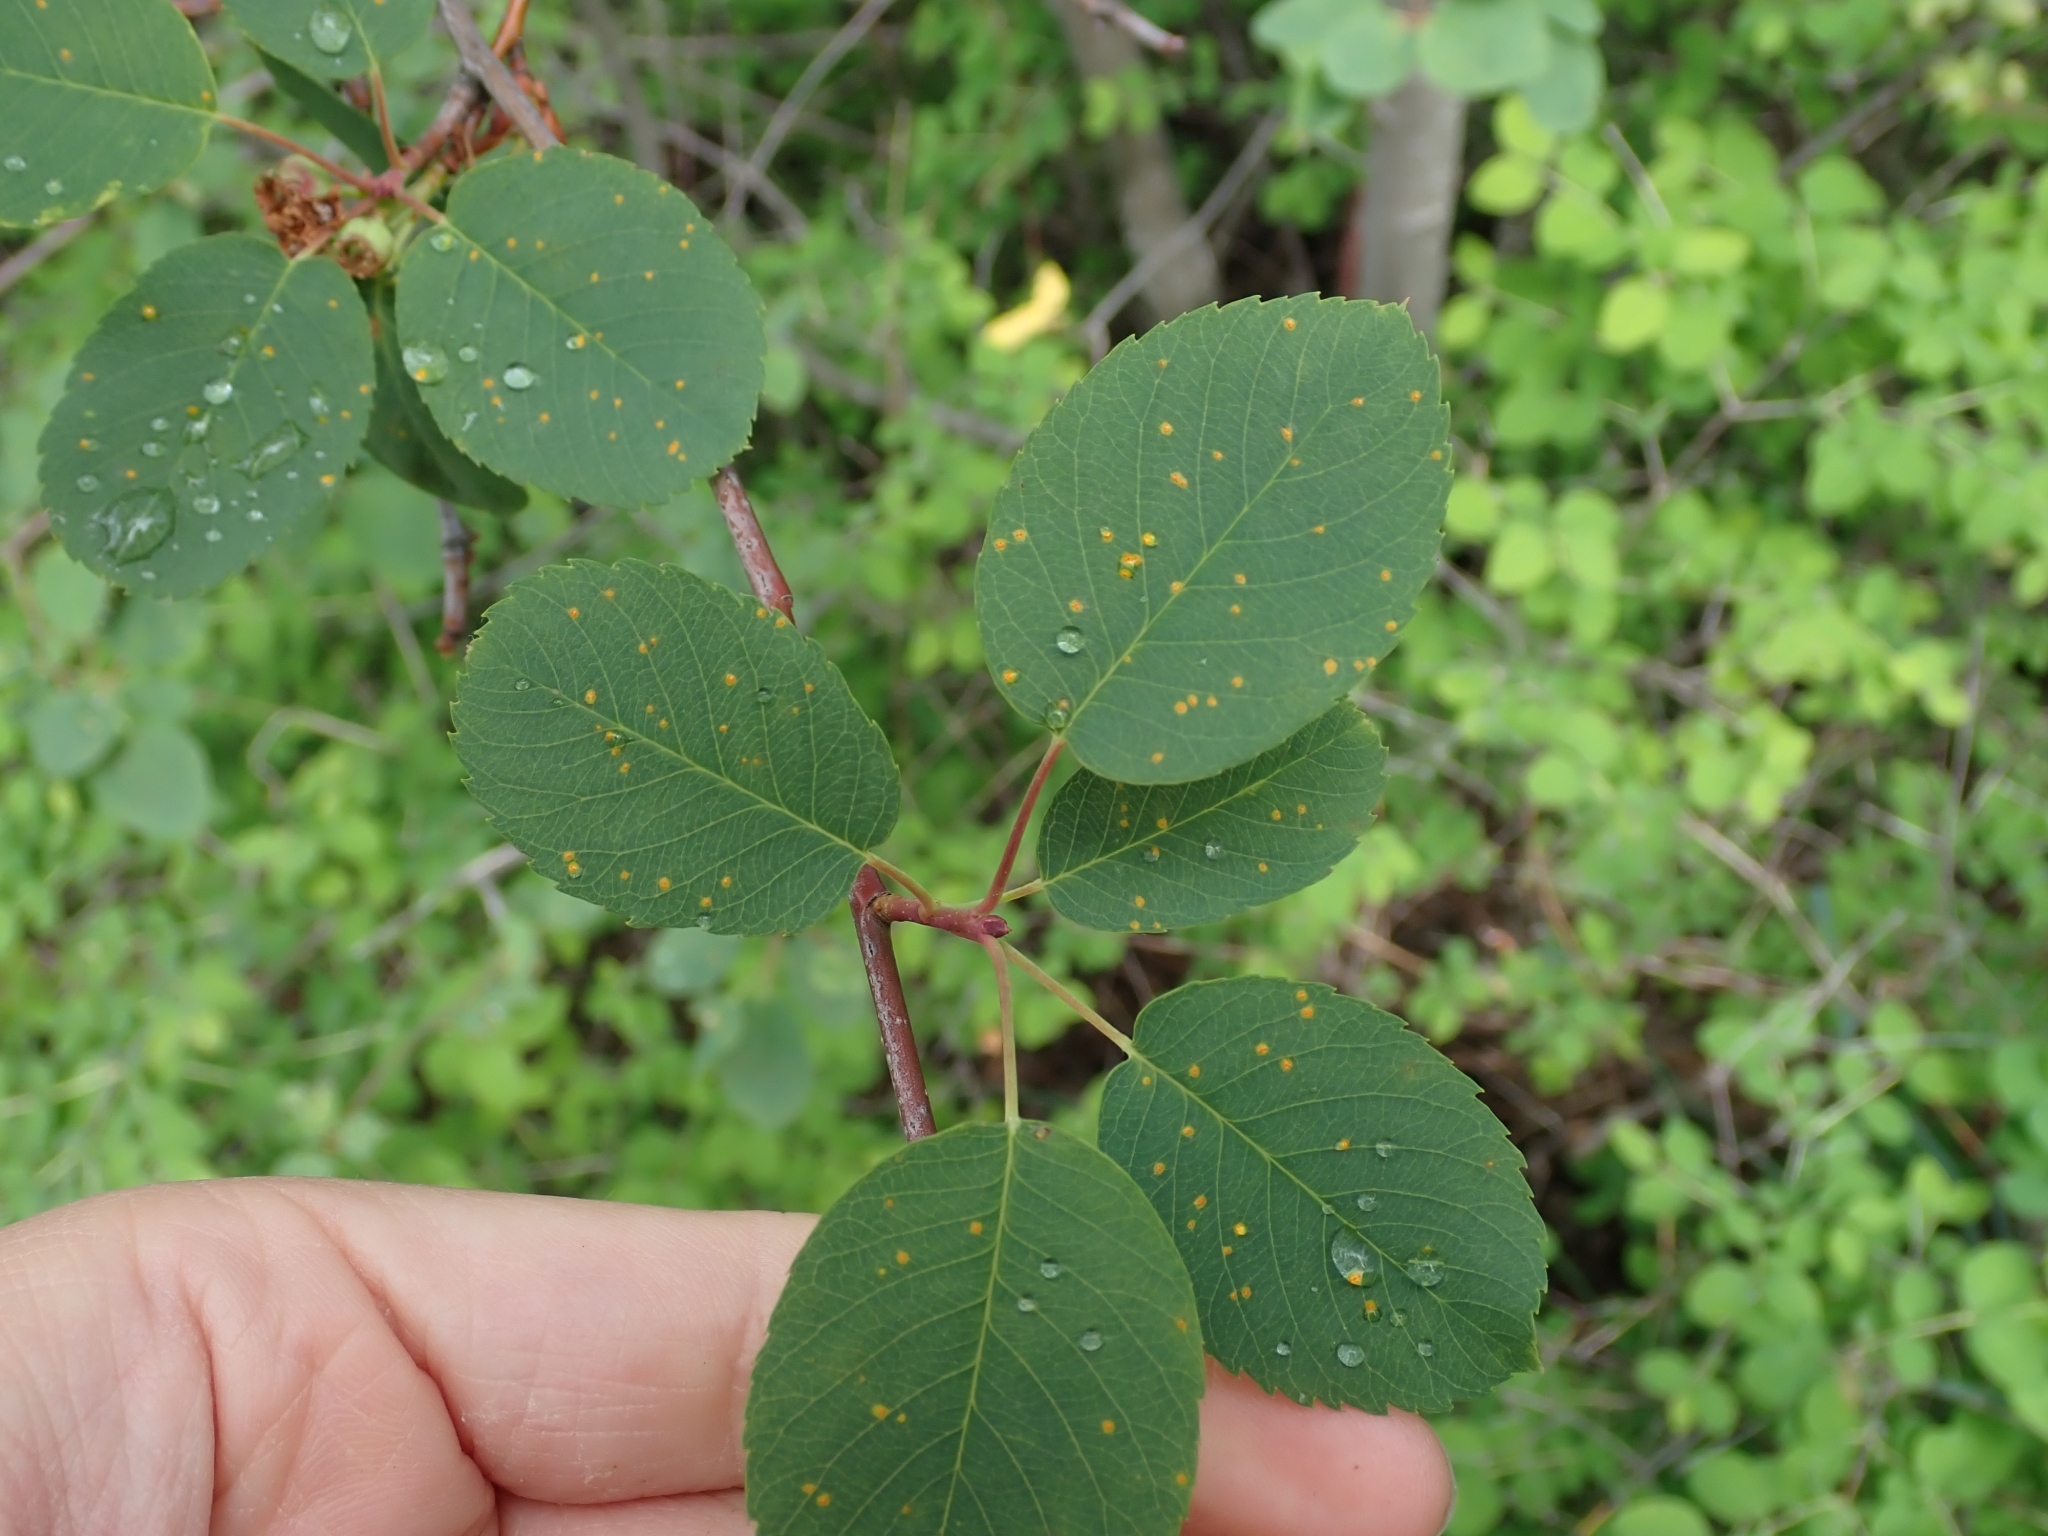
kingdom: Plantae
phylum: Tracheophyta
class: Magnoliopsida
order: Rosales
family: Rosaceae
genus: Amelanchier
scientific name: Amelanchier alnifolia
